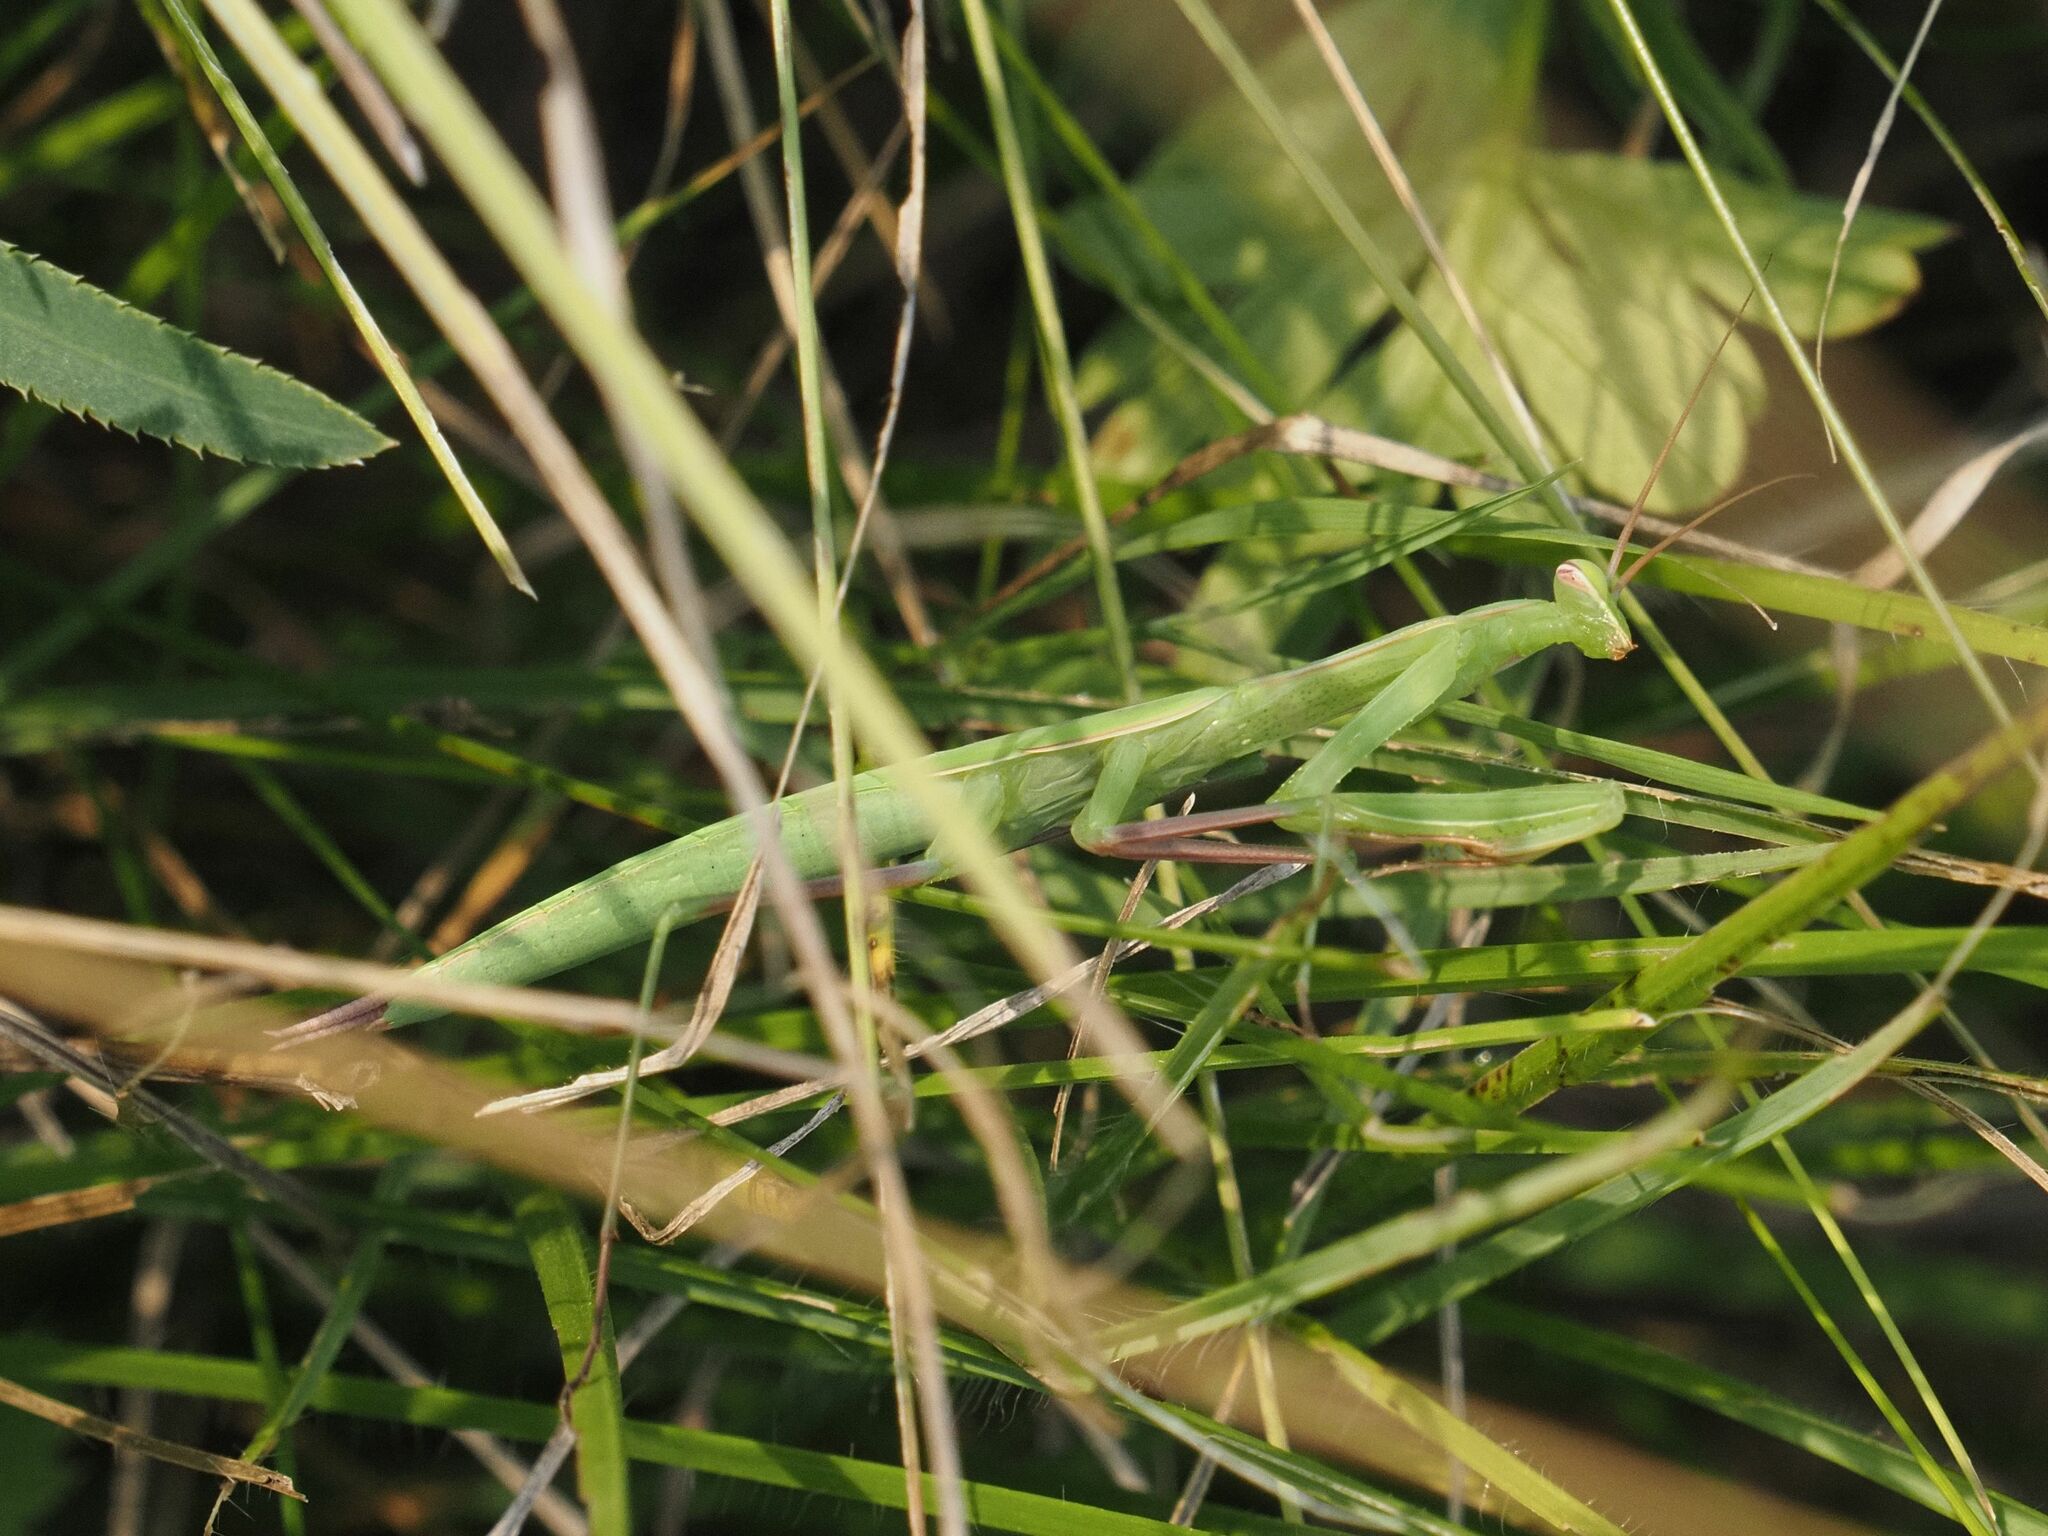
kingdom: Animalia
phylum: Arthropoda
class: Insecta
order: Mantodea
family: Mantidae
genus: Mantis
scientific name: Mantis religiosa
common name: Praying mantis
